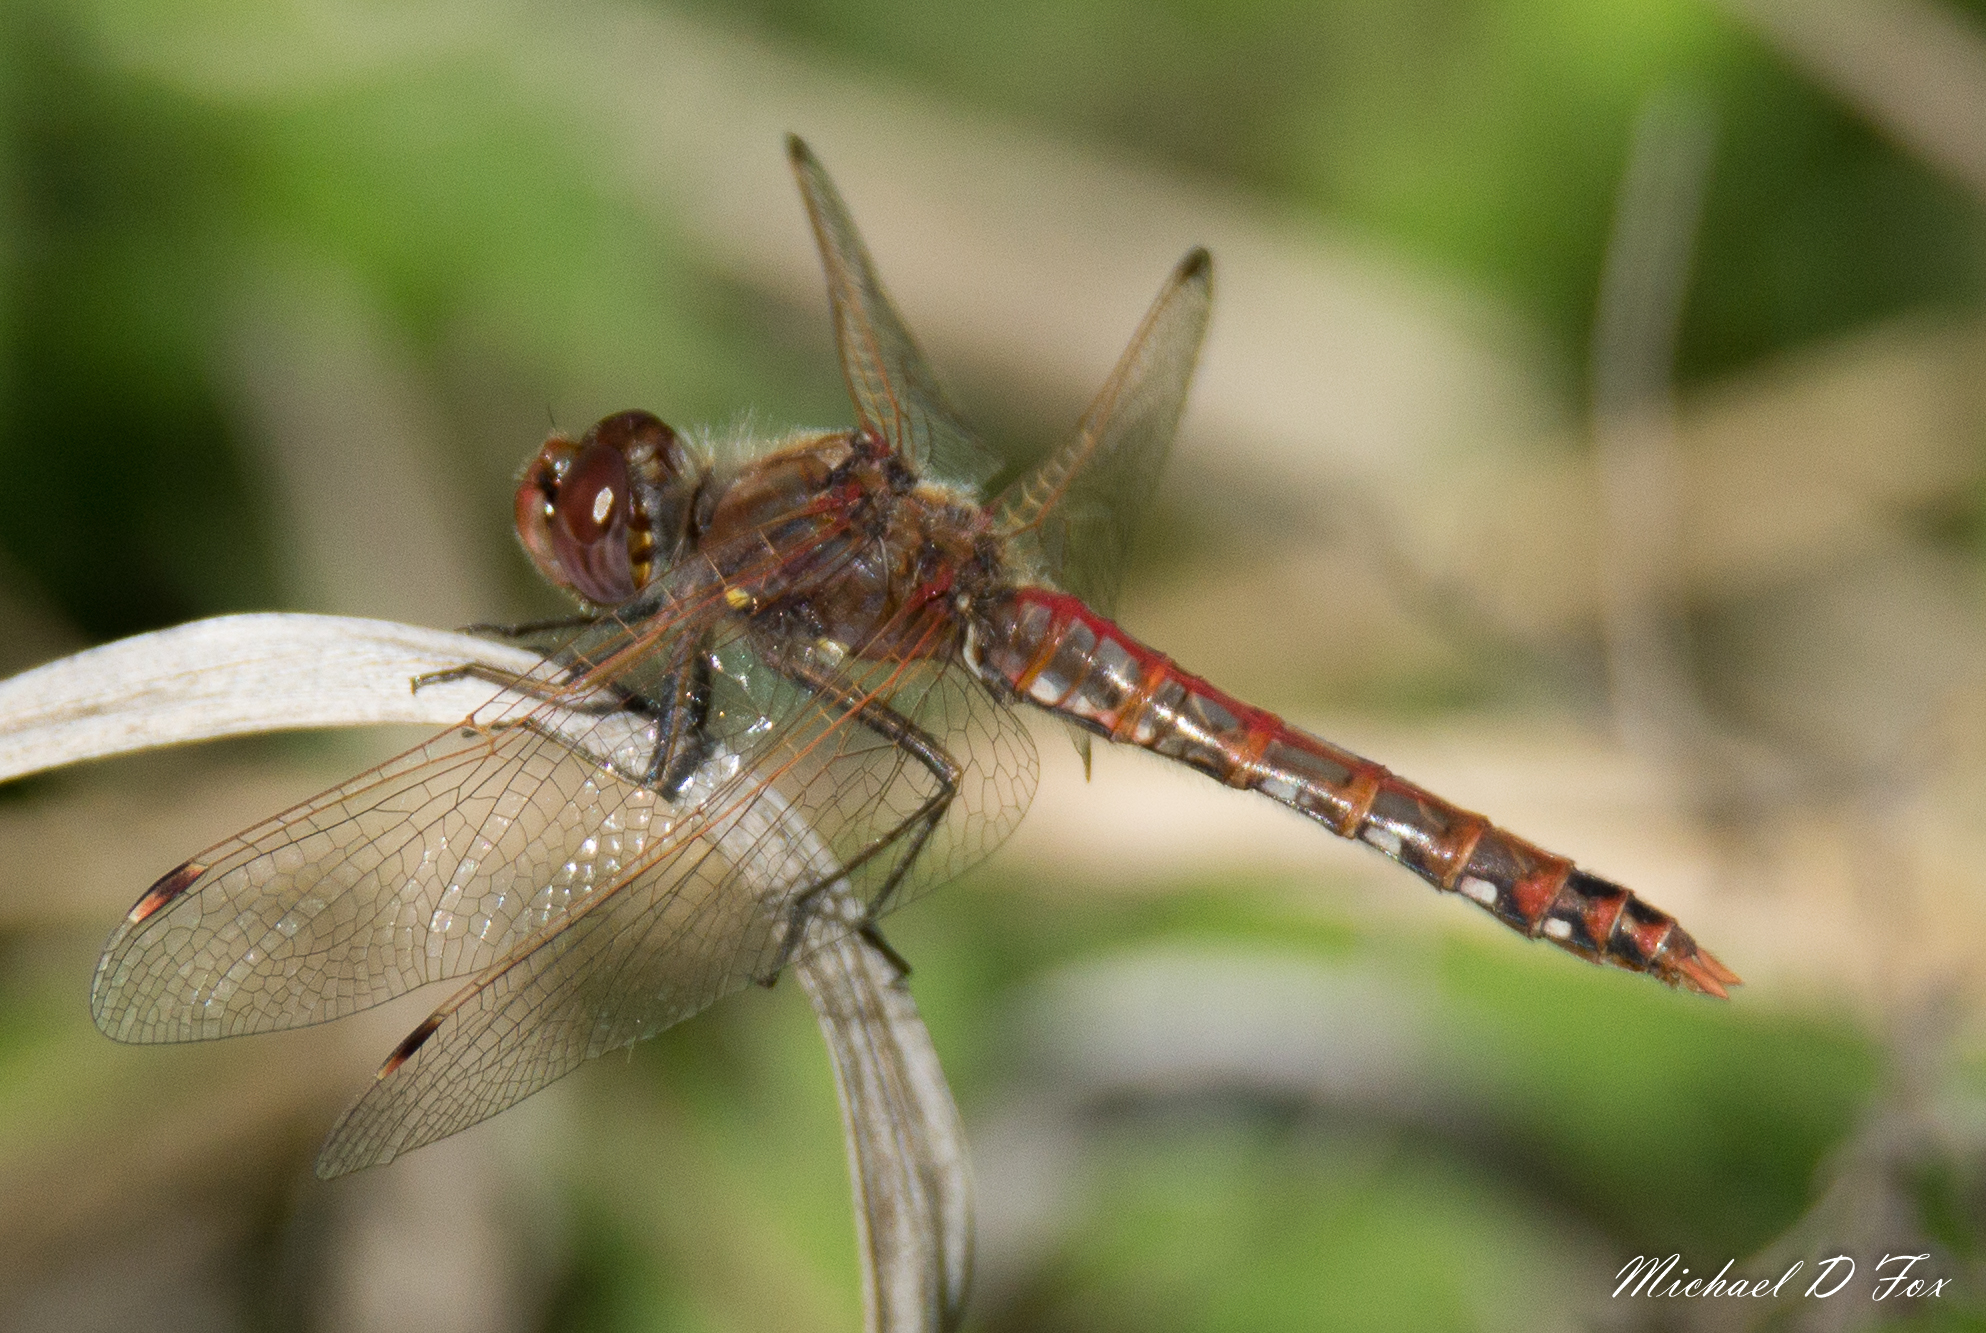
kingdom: Animalia
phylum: Arthropoda
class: Insecta
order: Odonata
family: Libellulidae
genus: Sympetrum
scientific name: Sympetrum corruptum
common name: Variegated meadowhawk
